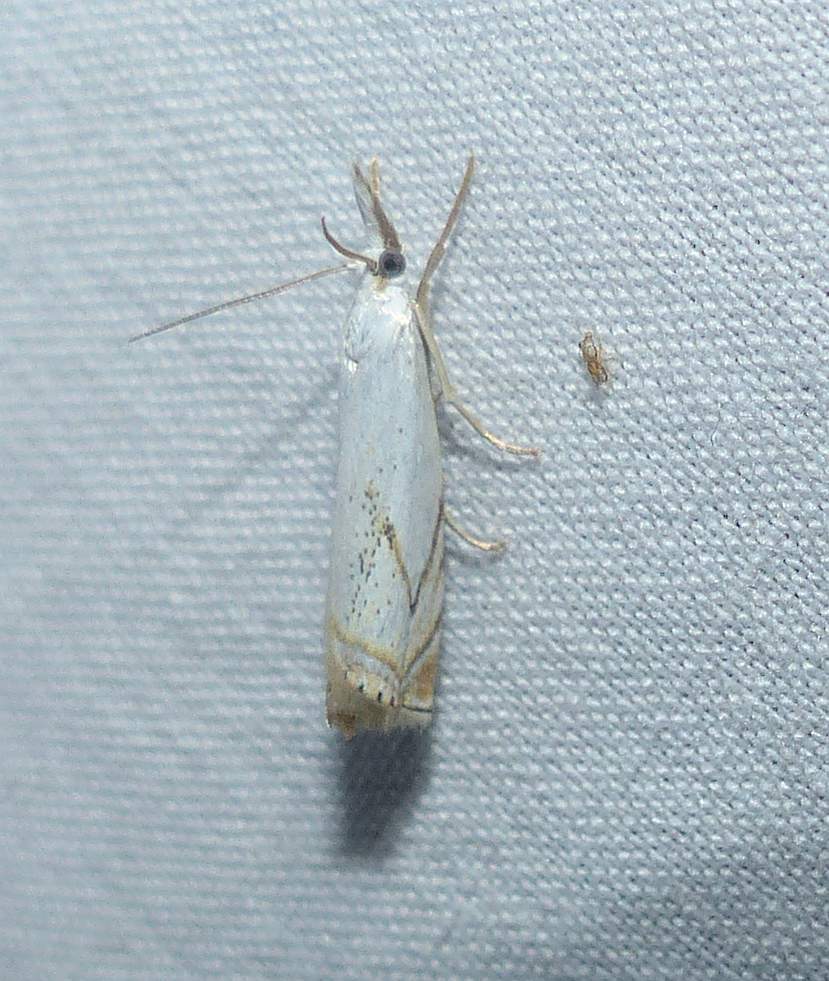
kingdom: Animalia
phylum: Arthropoda
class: Insecta
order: Lepidoptera
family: Crambidae
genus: Crambus
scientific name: Crambus albellus
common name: Small white grass-veneer
